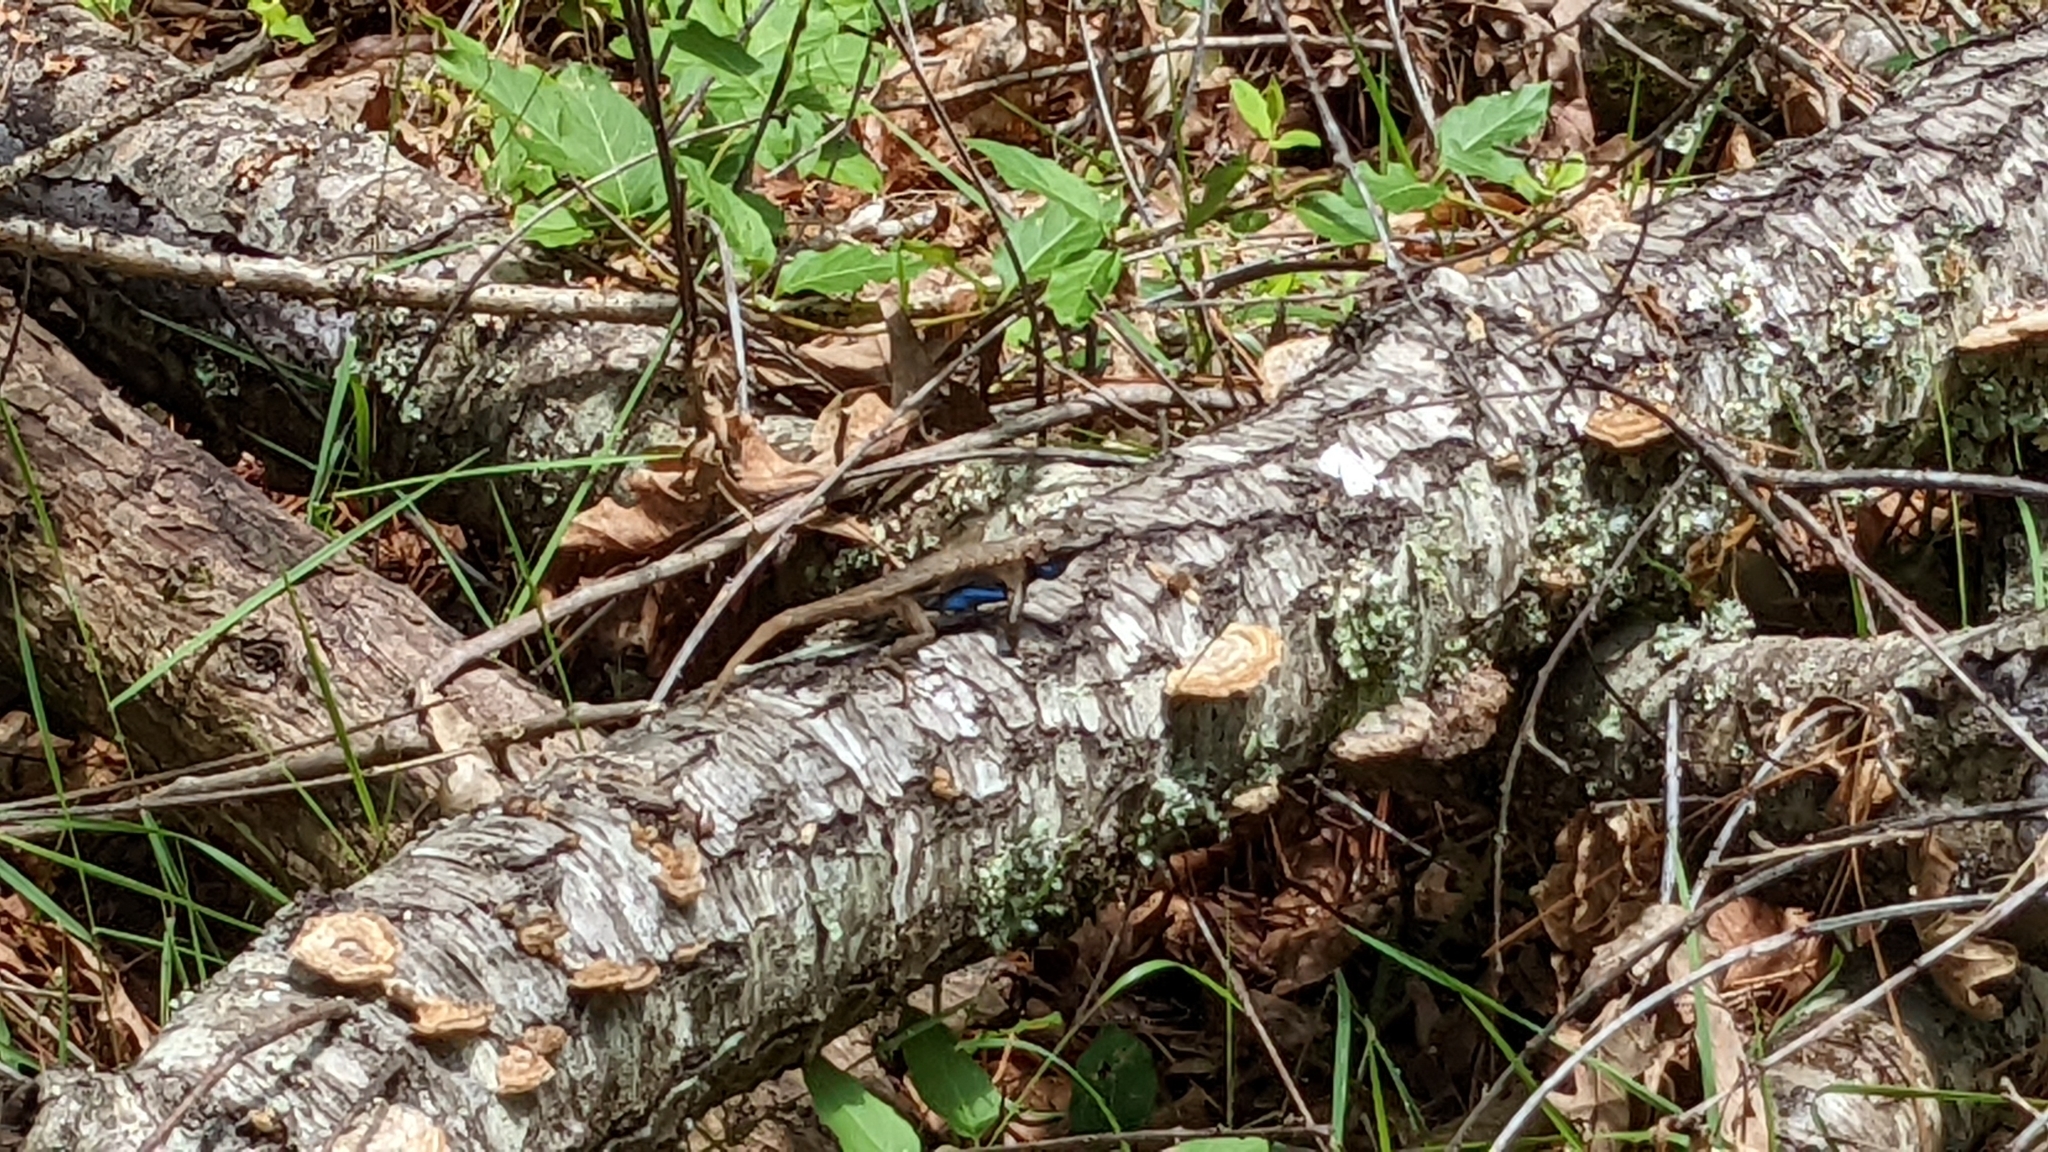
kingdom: Animalia
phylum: Chordata
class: Squamata
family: Phrynosomatidae
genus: Sceloporus
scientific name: Sceloporus consobrinus
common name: Southern prairie lizard
